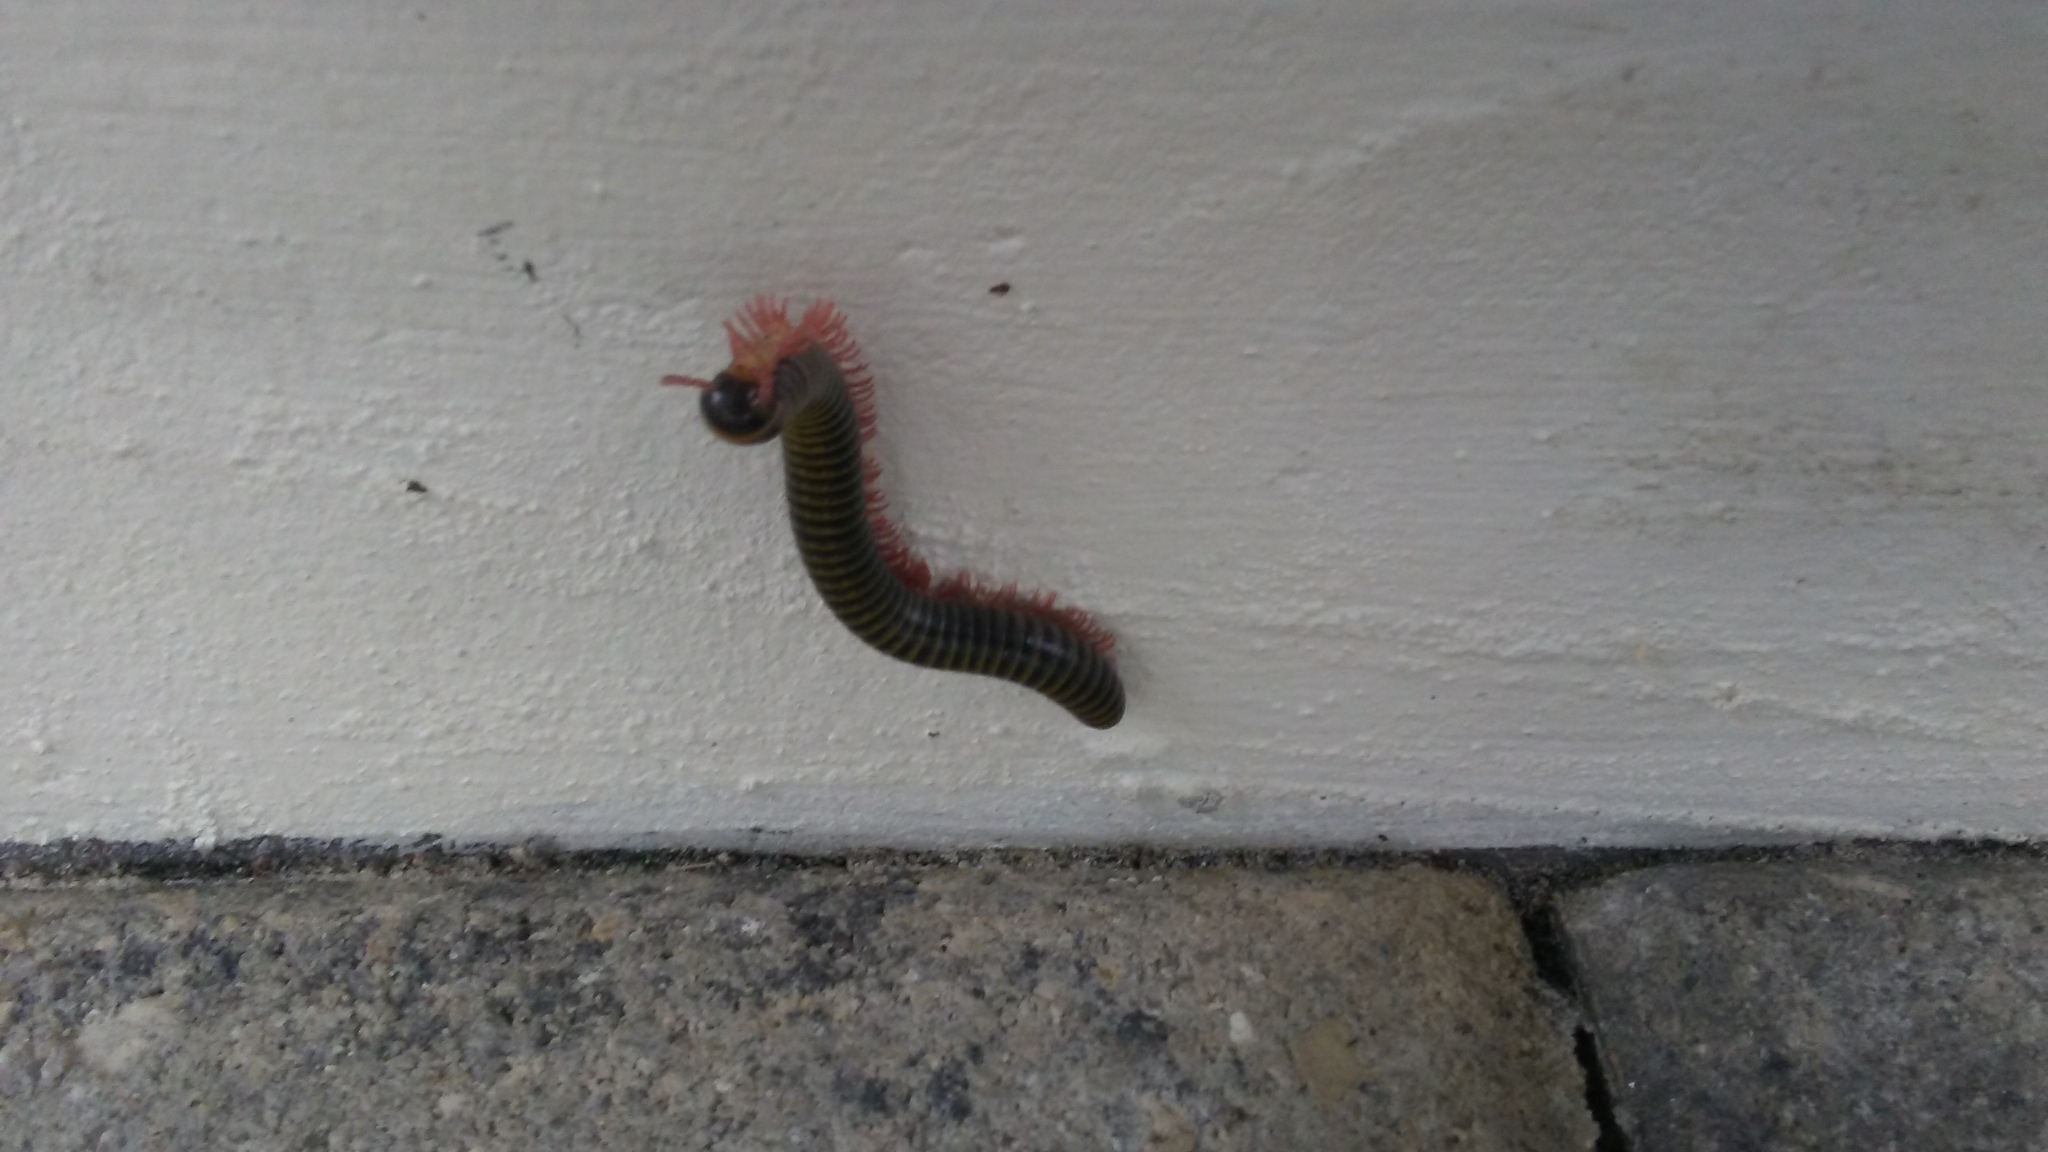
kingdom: Animalia
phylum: Arthropoda
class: Diplopoda
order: Spirobolida
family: Rhinocricidae
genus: Anadenobolus
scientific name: Anadenobolus monilicornis
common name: Caribbean millipede
